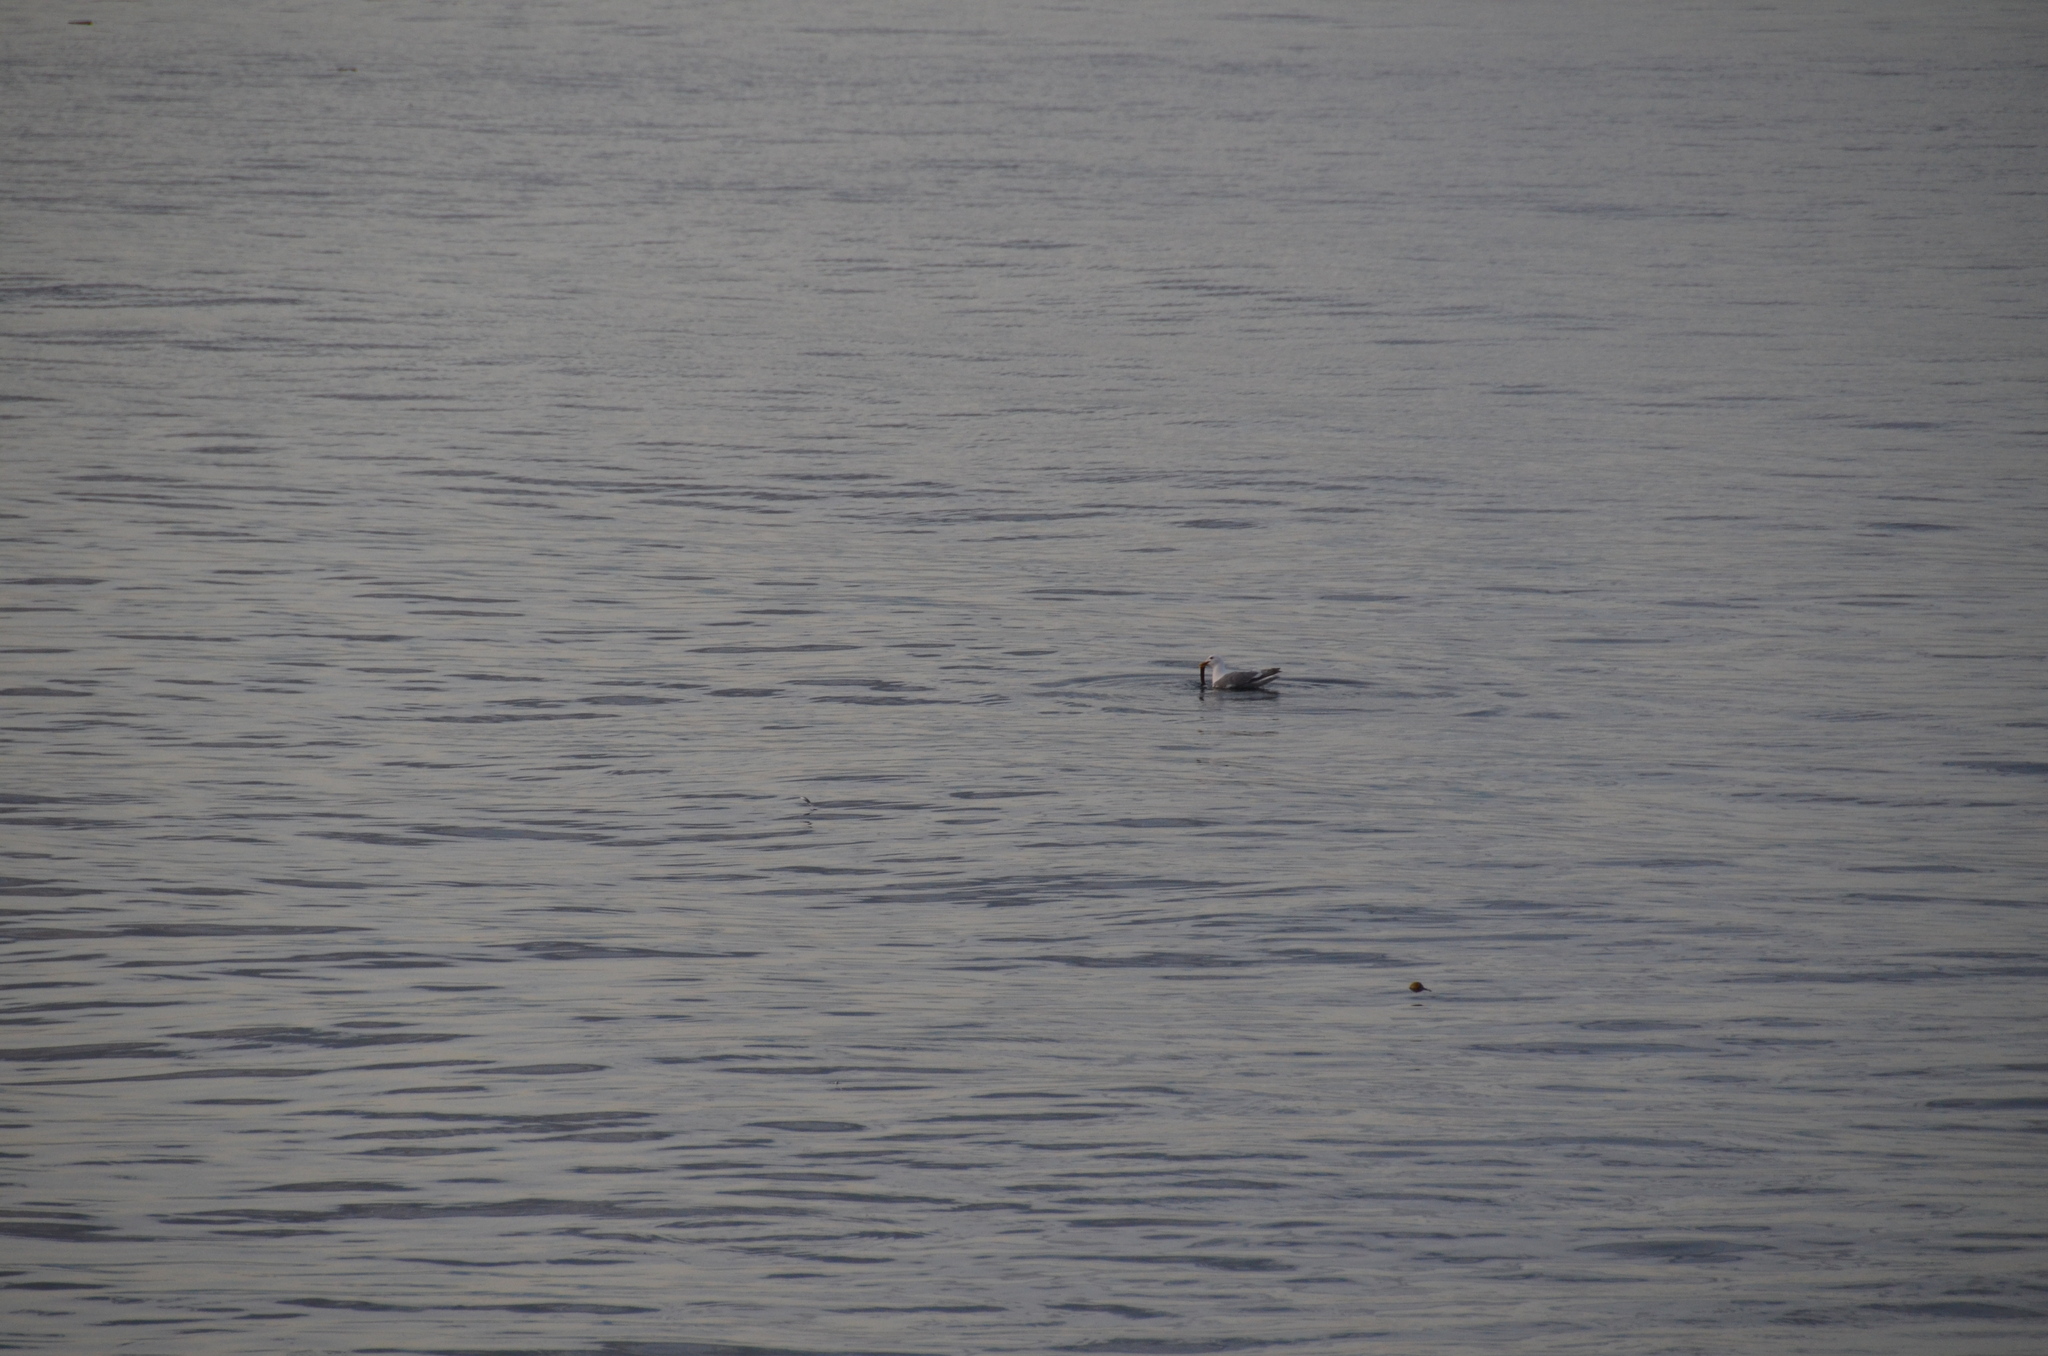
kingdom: Animalia
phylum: Chordata
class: Aves
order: Charadriiformes
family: Laridae
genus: Larus
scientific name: Larus
